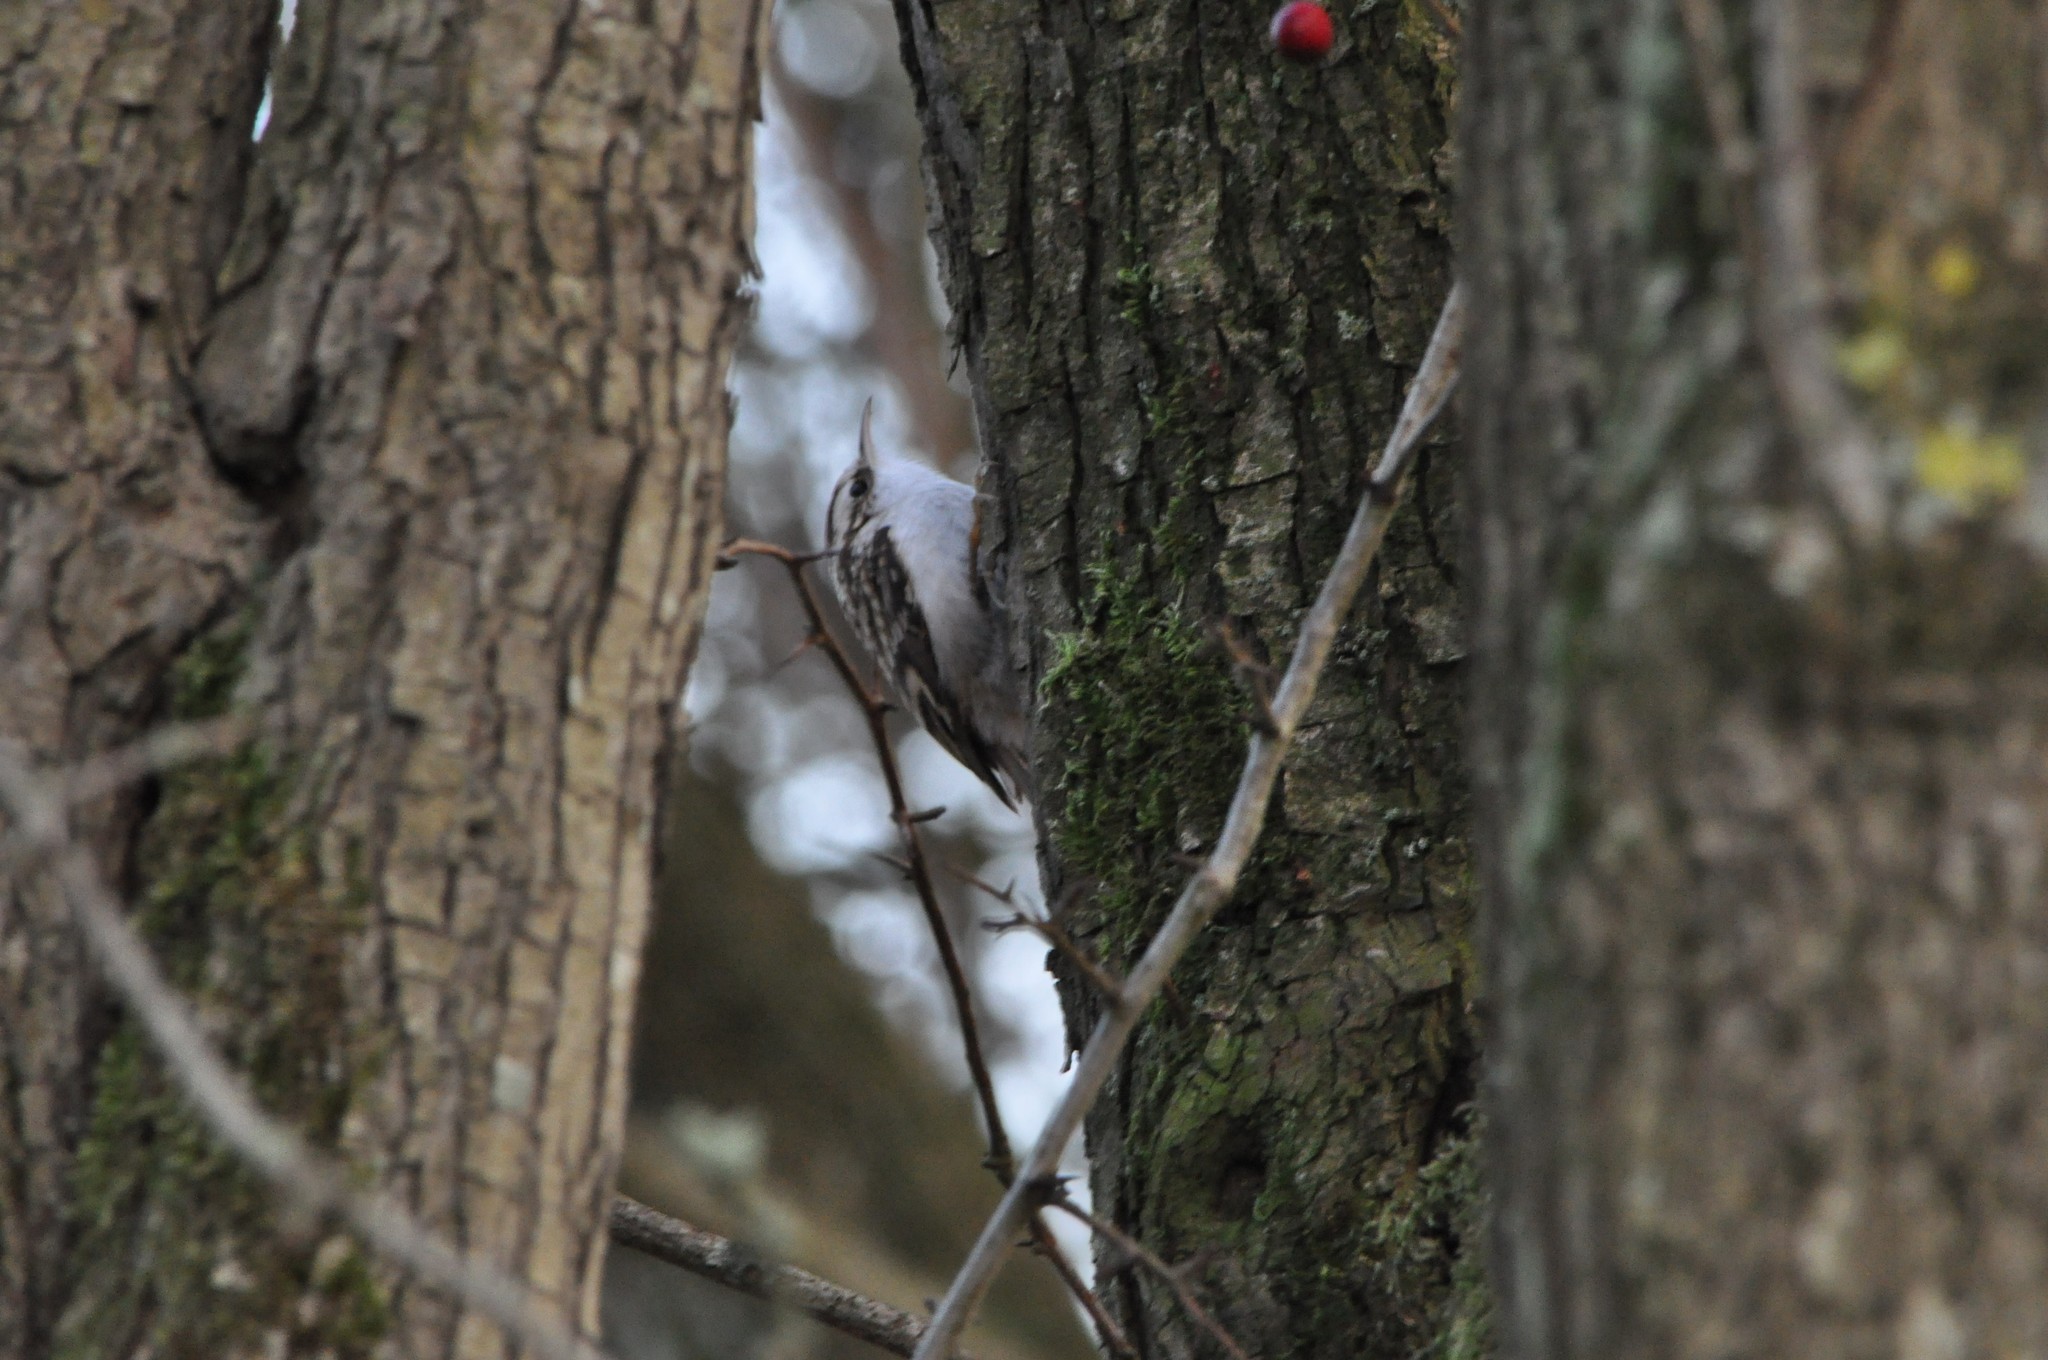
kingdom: Animalia
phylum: Chordata
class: Aves
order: Passeriformes
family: Certhiidae
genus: Certhia
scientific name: Certhia familiaris
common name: Eurasian treecreeper
